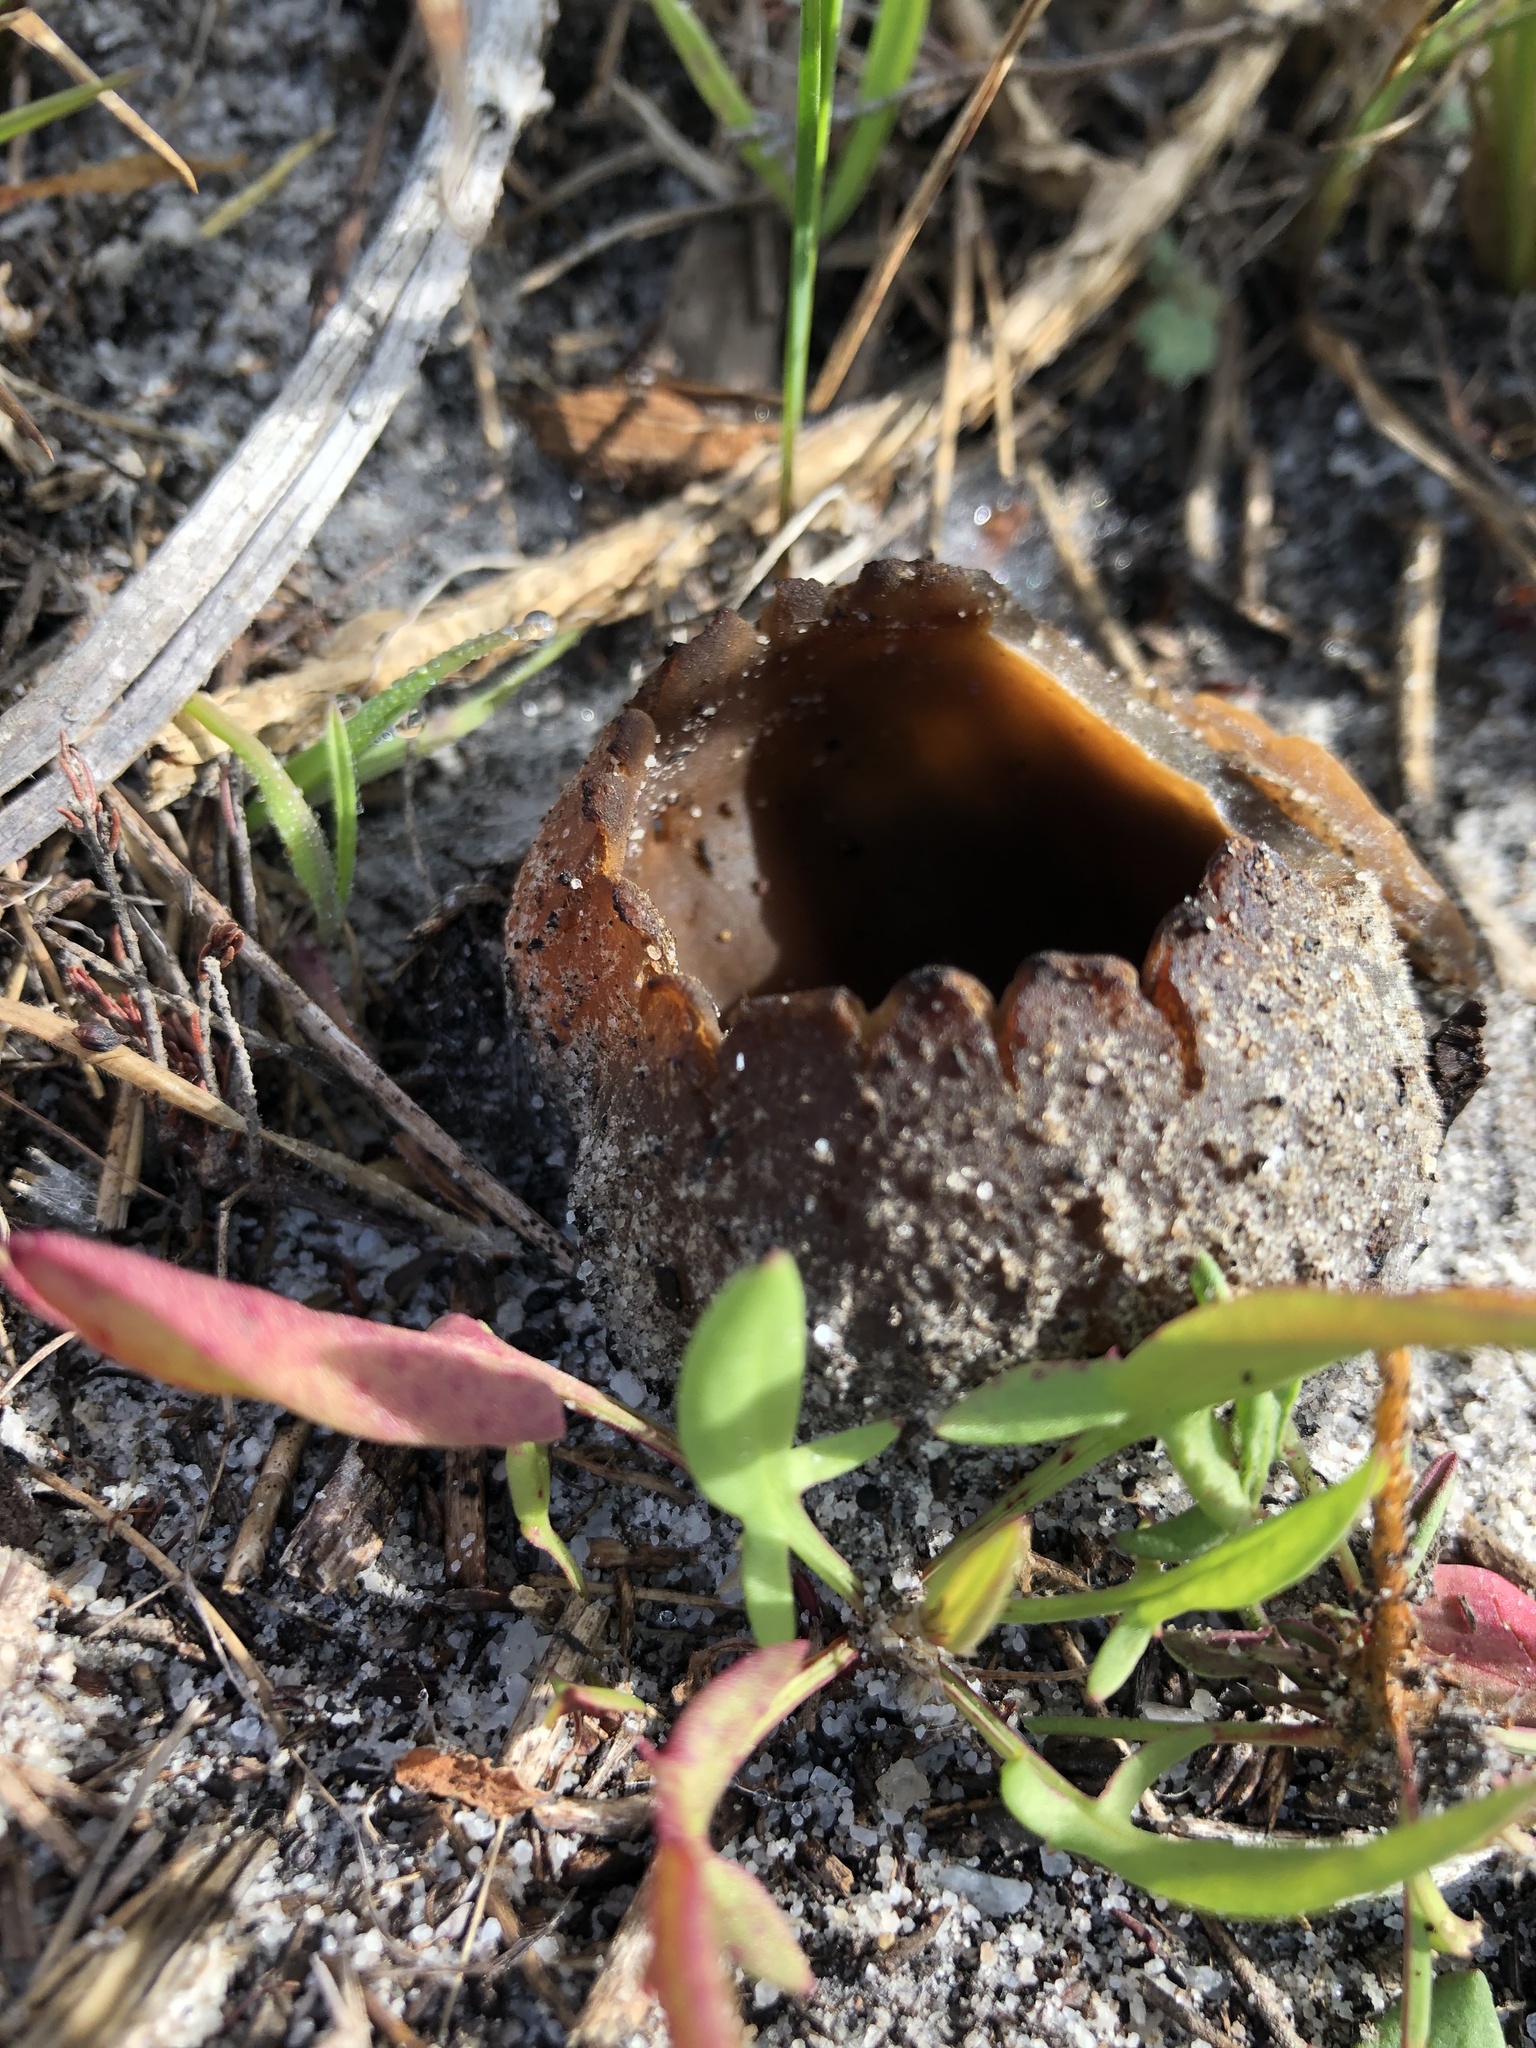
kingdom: Fungi
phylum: Ascomycota
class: Pezizomycetes
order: Pezizales
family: Pezizaceae
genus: Peziza
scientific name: Peziza ammophila
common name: Dune cup
